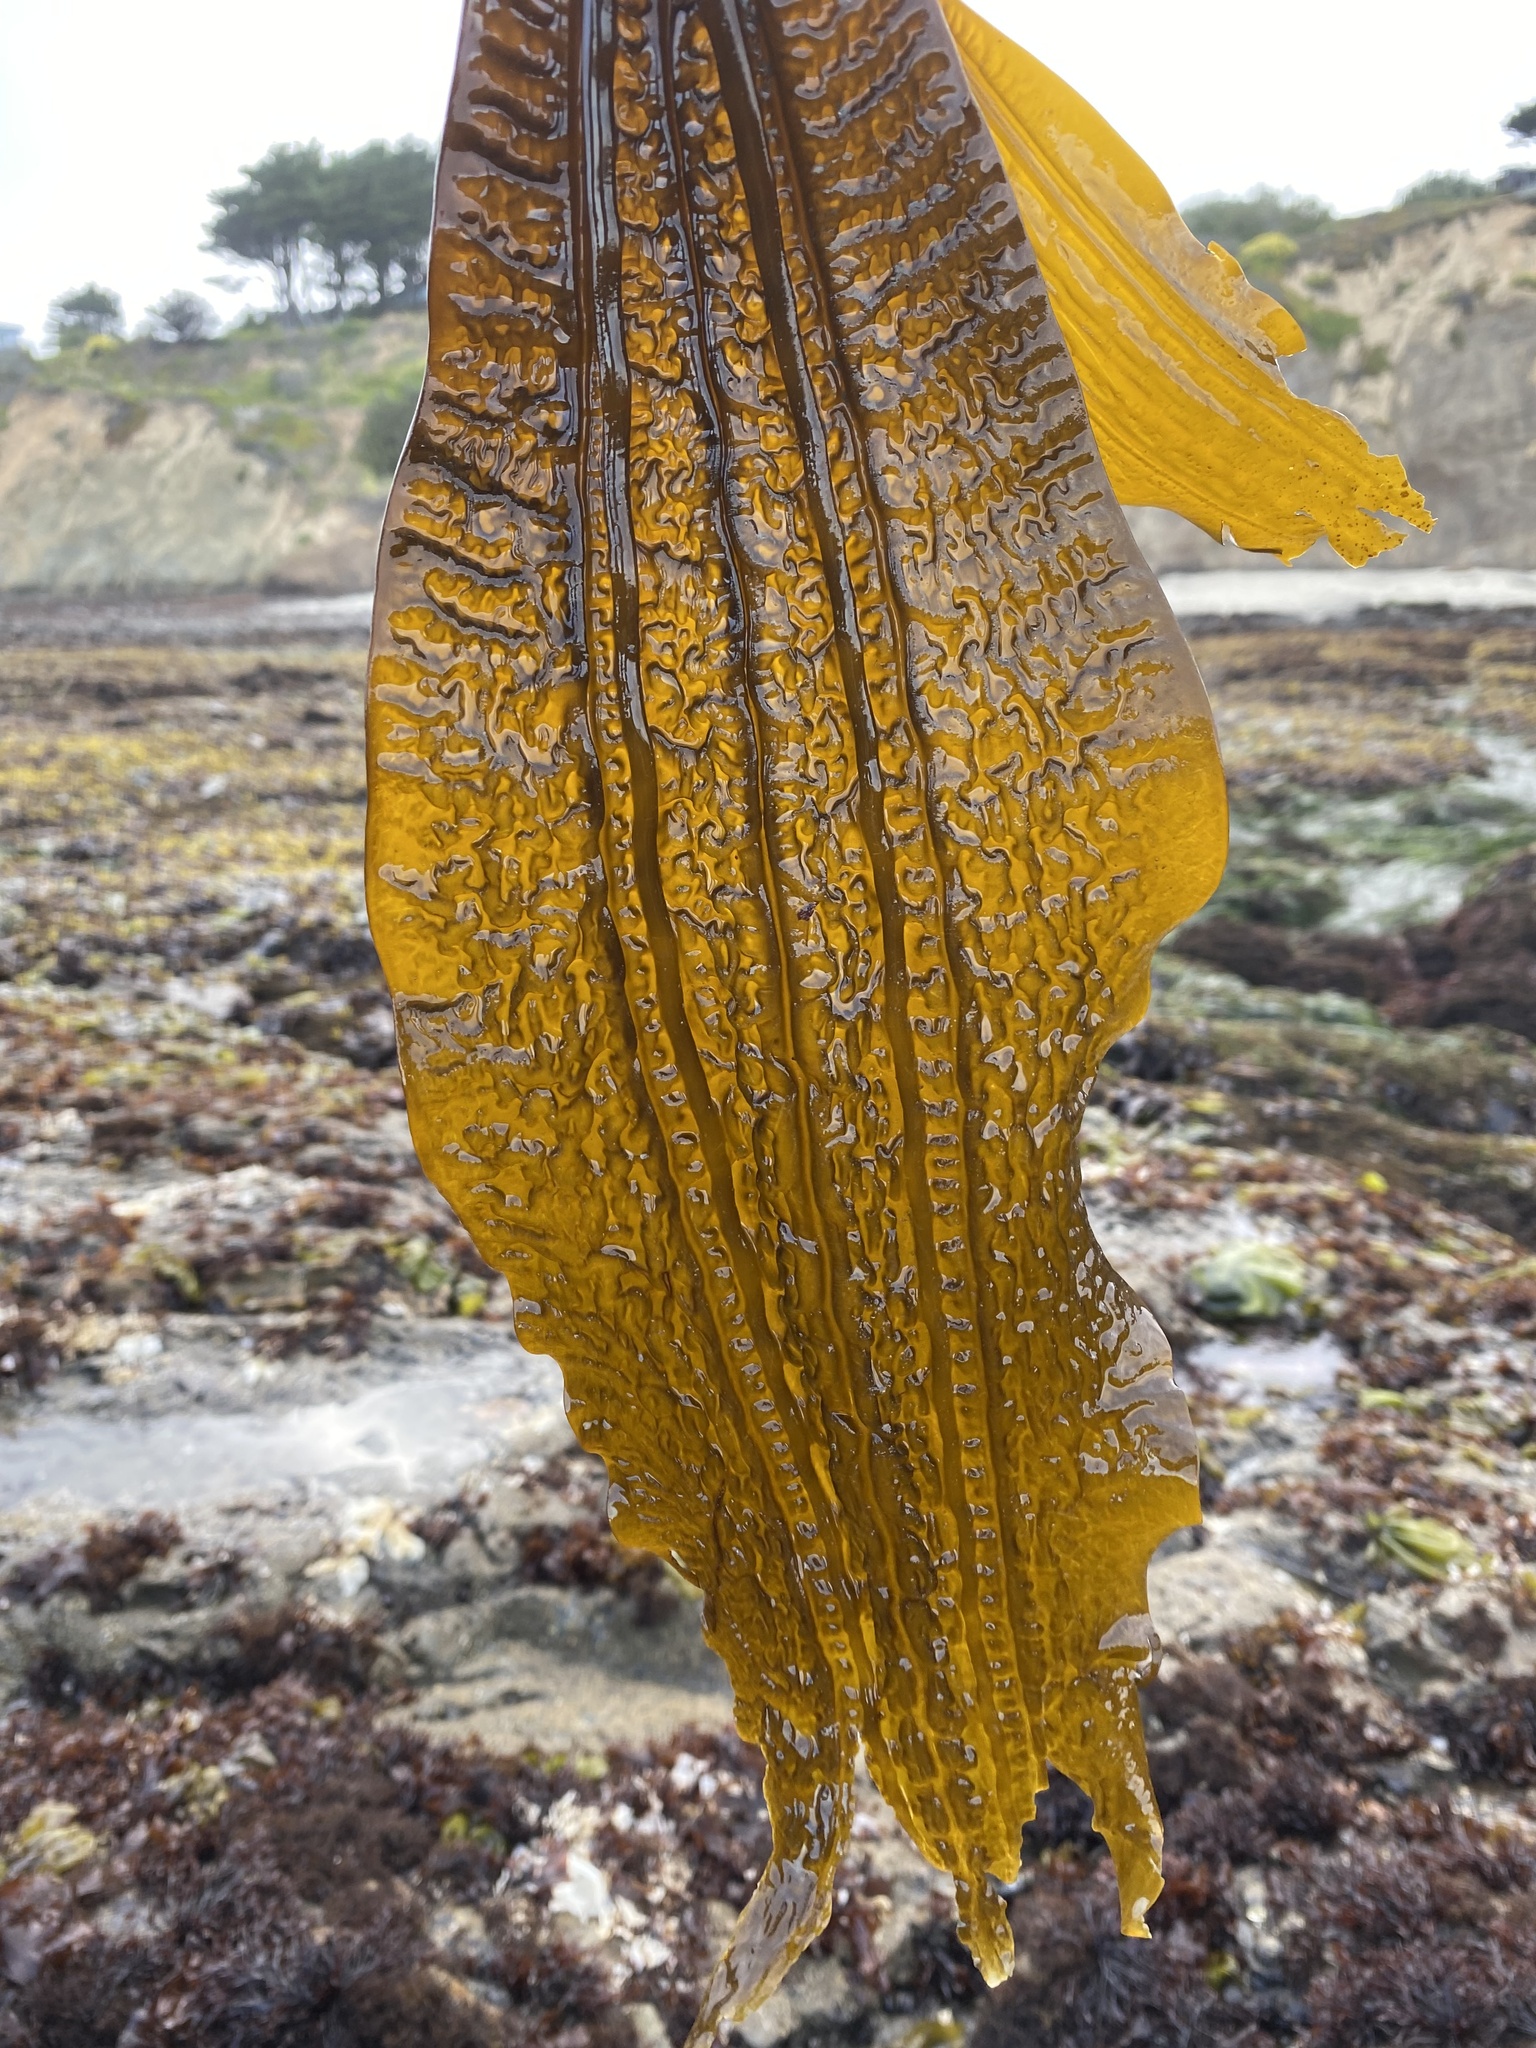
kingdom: Chromista
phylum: Ochrophyta
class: Phaeophyceae
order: Laminariales
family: Costariaceae
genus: Costaria
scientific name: Costaria costata
